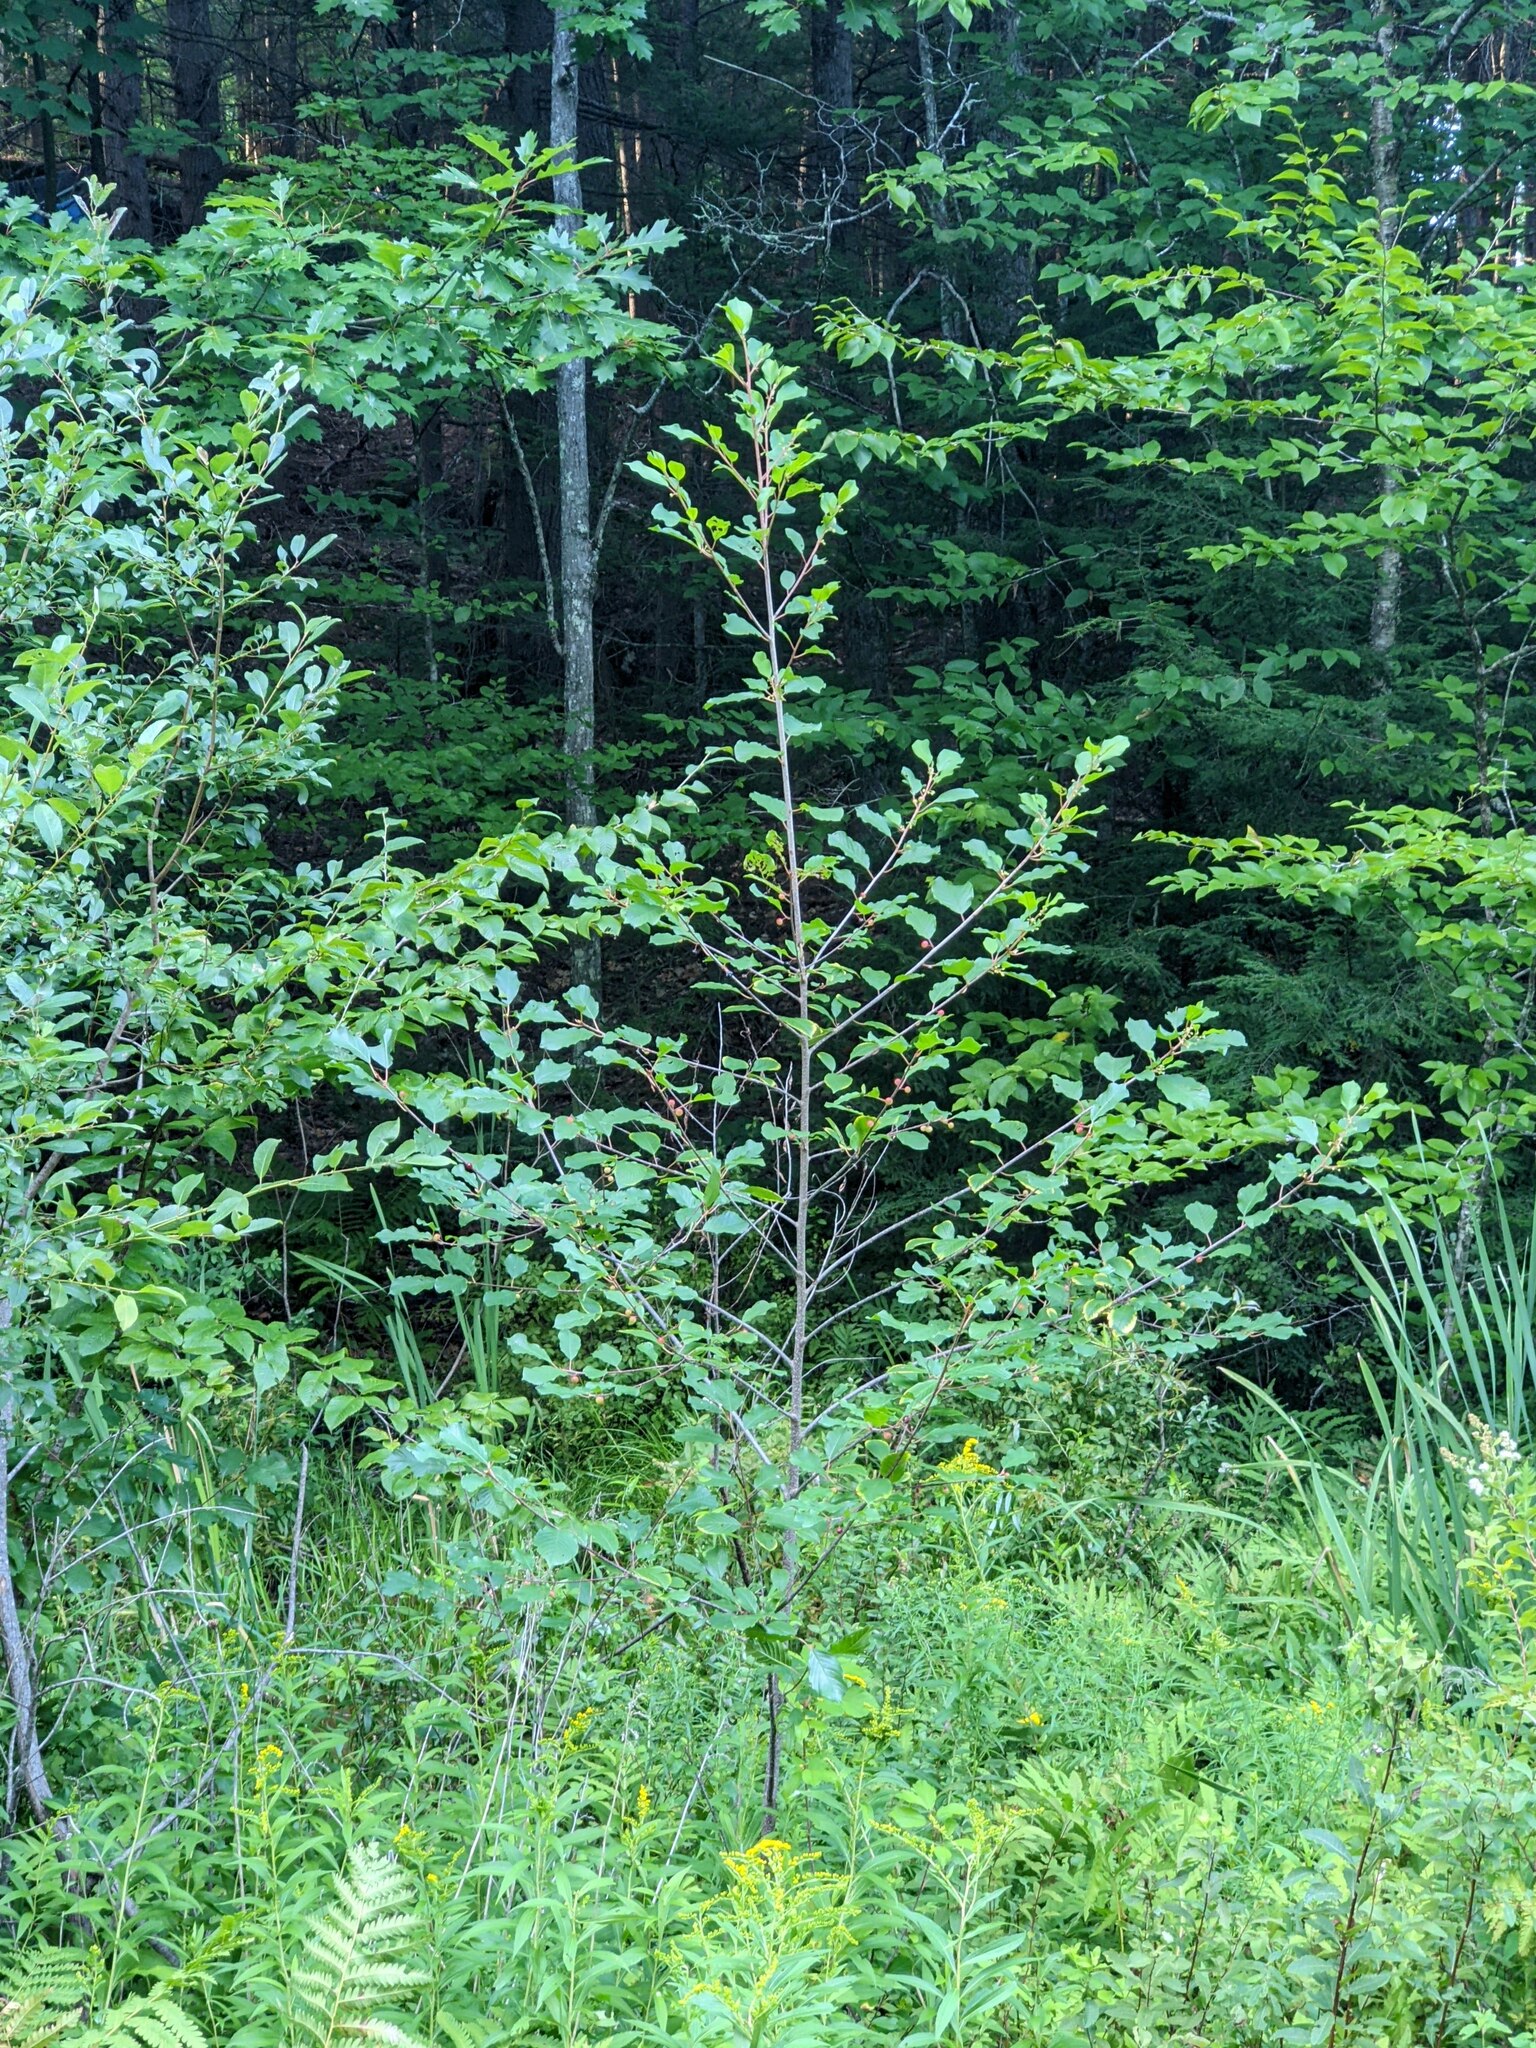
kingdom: Plantae
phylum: Tracheophyta
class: Magnoliopsida
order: Rosales
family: Rhamnaceae
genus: Frangula
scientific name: Frangula alnus
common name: Alder buckthorn
